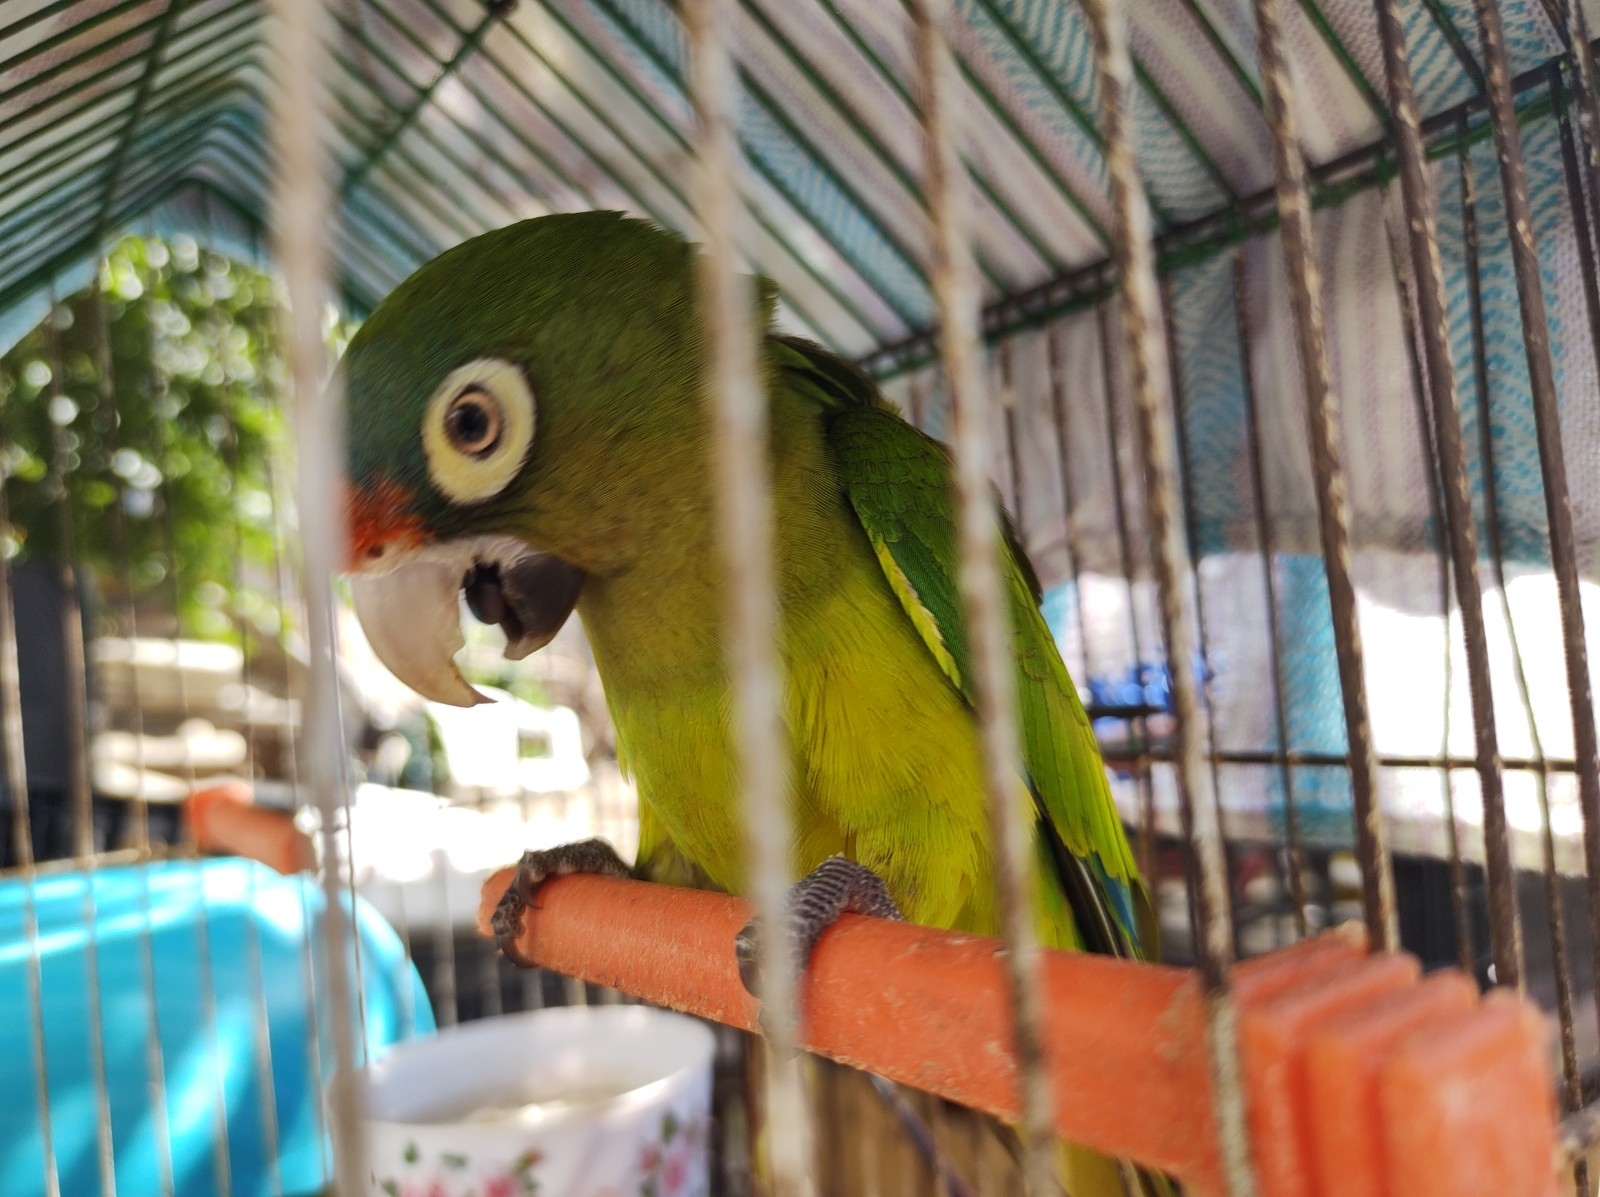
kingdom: Animalia
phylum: Chordata
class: Aves
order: Psittaciformes
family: Psittacidae
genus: Aratinga
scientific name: Aratinga canicularis
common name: Orange-fronted parakeet
